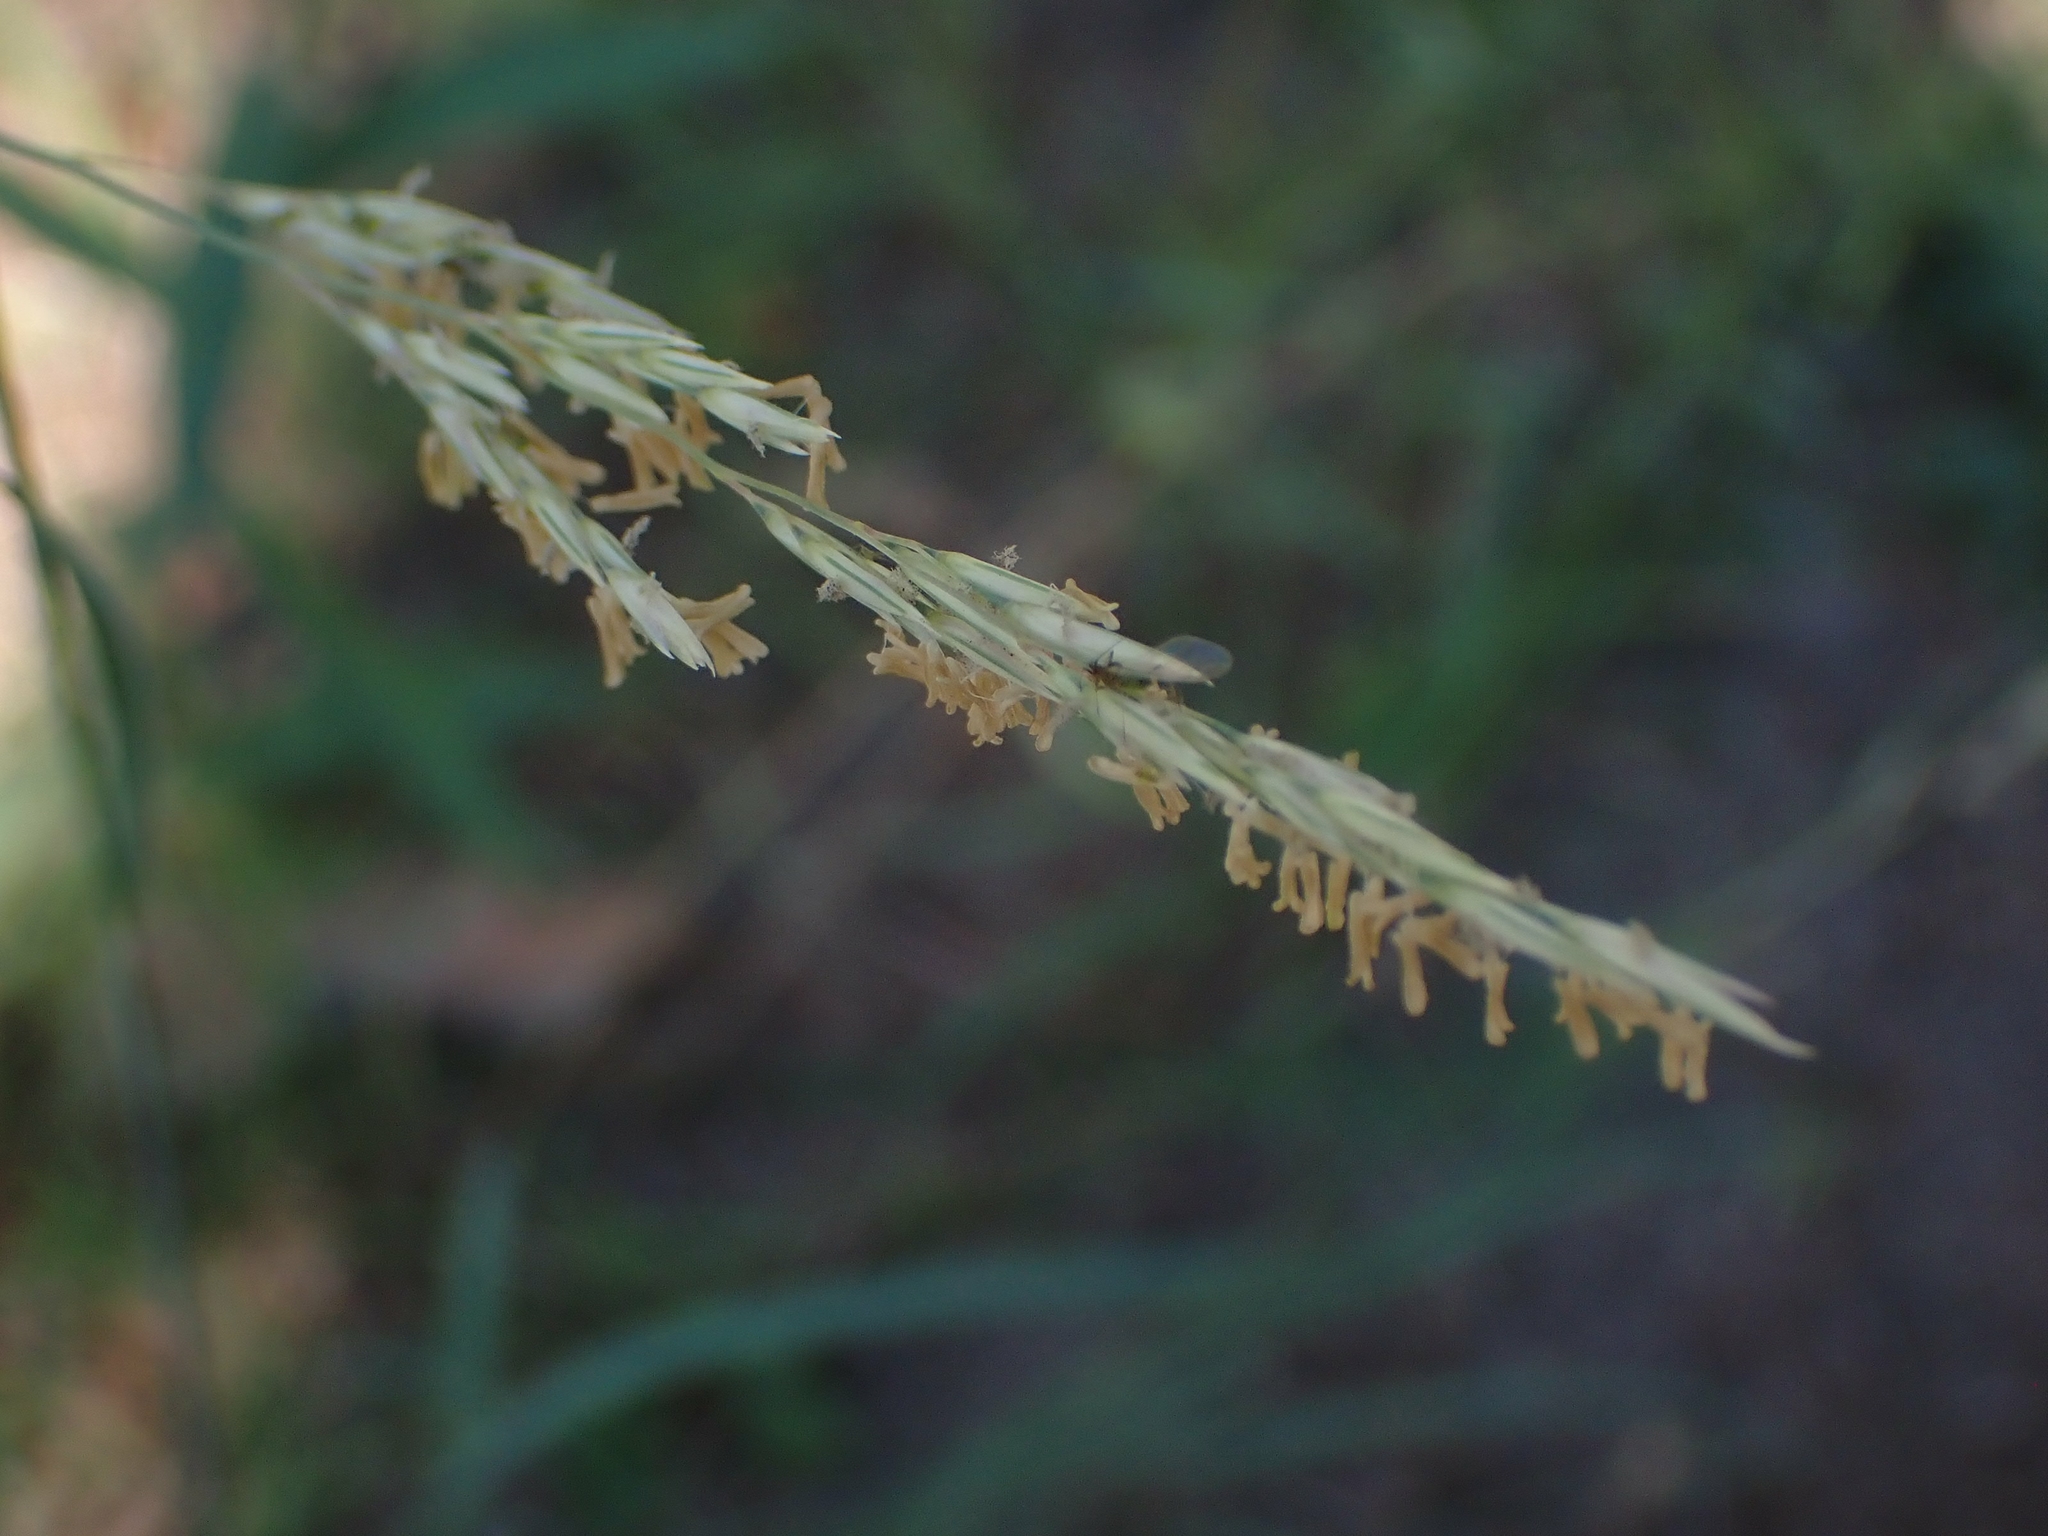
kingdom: Plantae
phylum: Tracheophyta
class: Liliopsida
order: Poales
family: Poaceae
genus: Sporobolus
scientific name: Sporobolus rigidus
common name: Prairie sandreed
